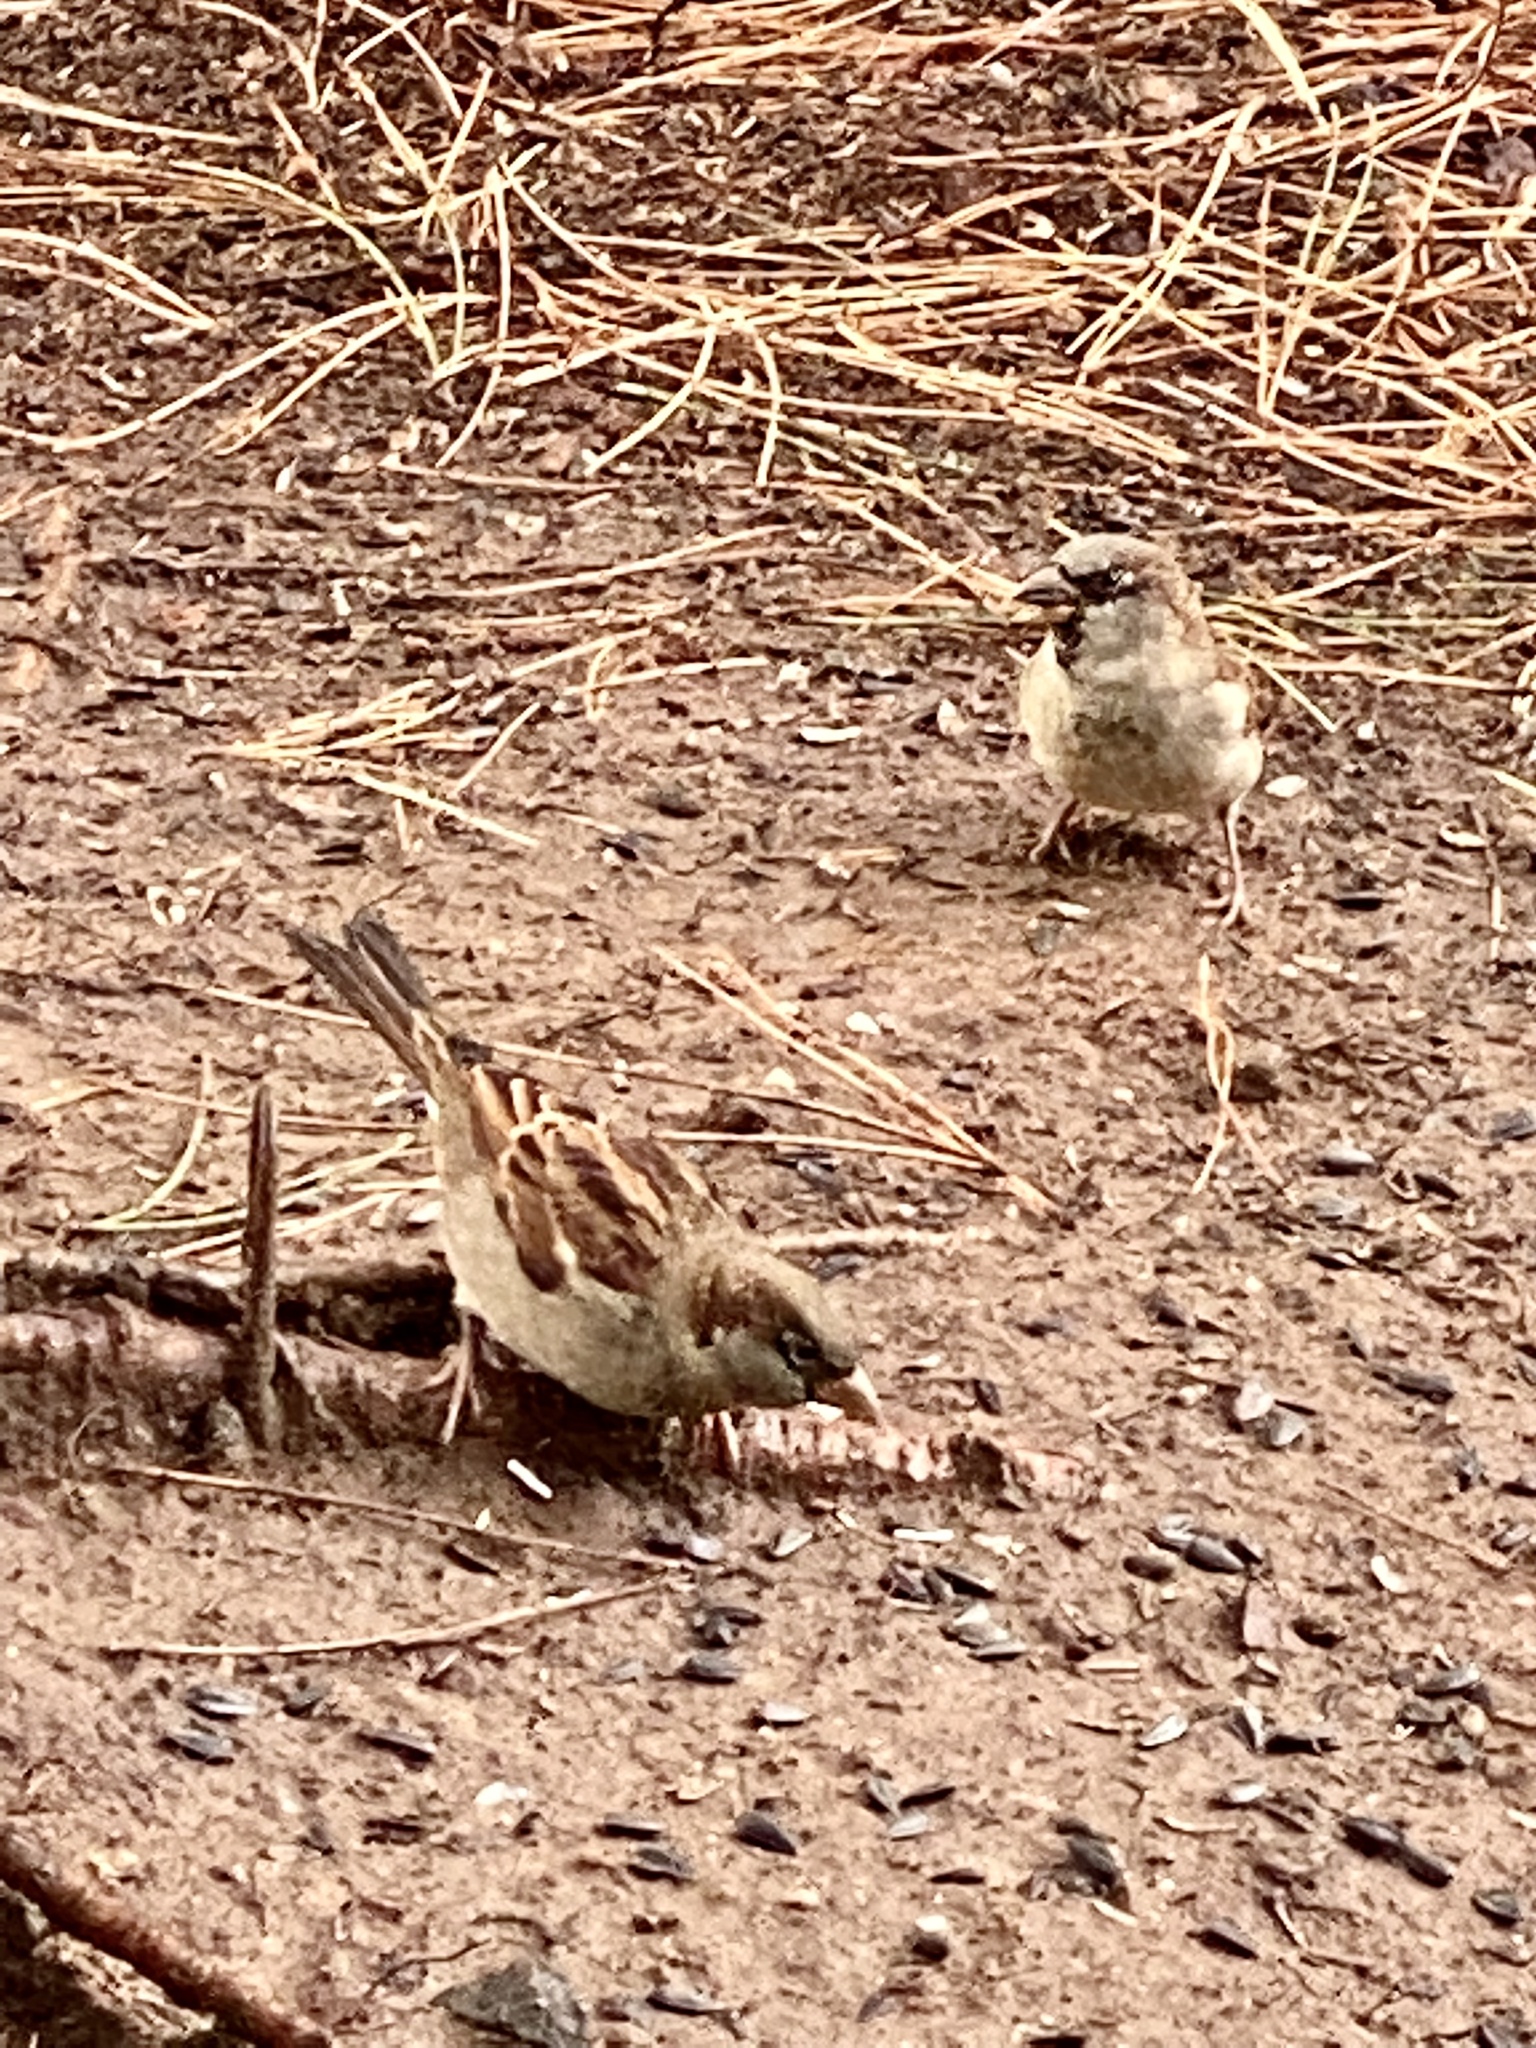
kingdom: Animalia
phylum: Chordata
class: Aves
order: Passeriformes
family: Passeridae
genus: Passer
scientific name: Passer domesticus
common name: House sparrow
